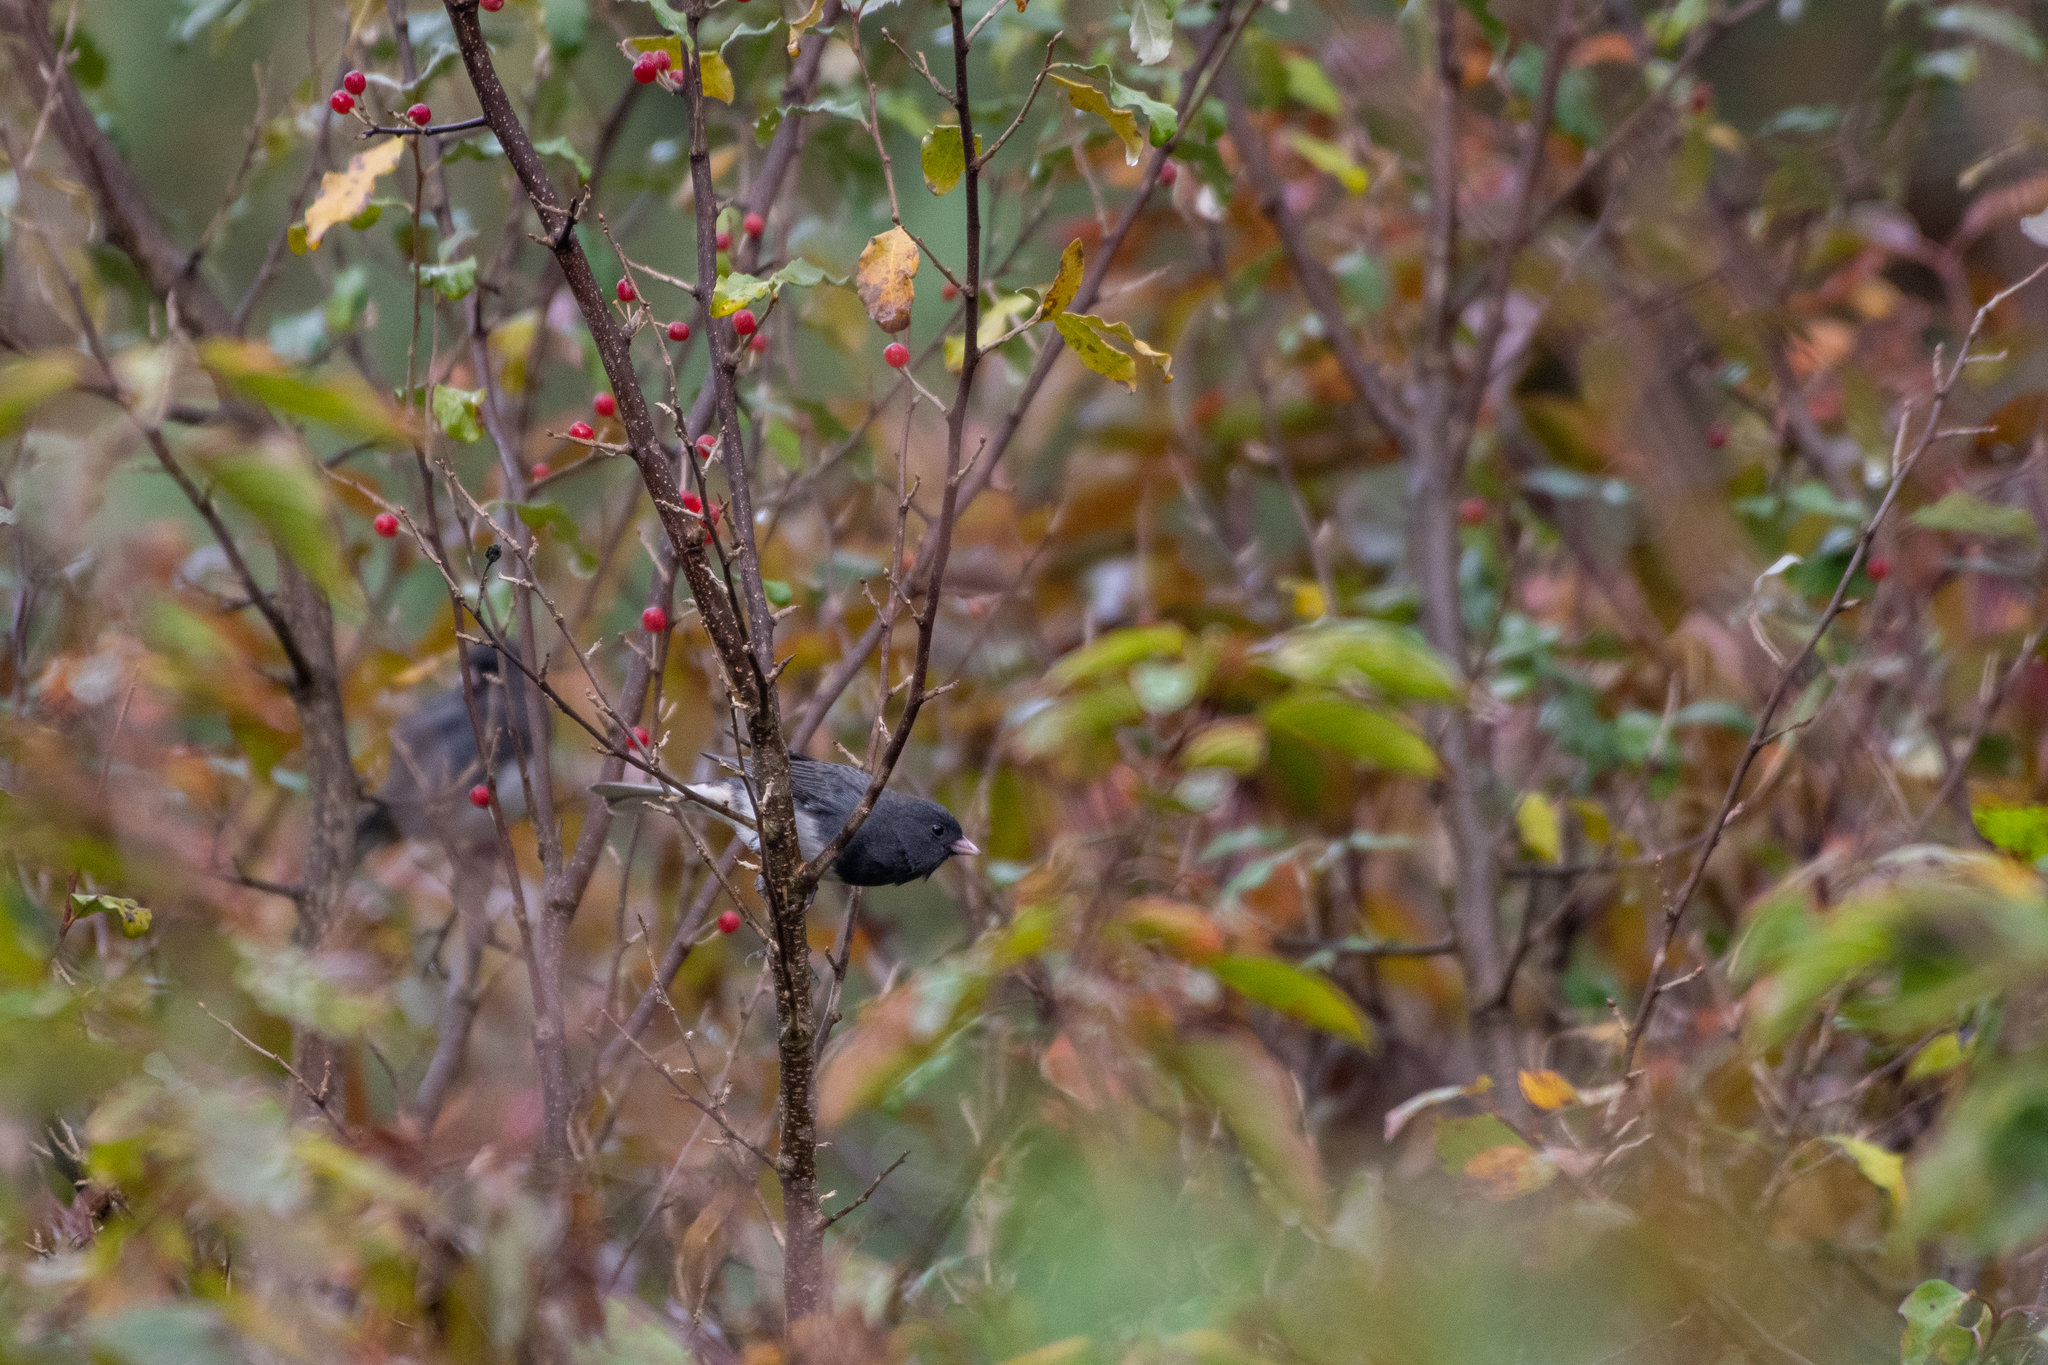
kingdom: Animalia
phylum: Chordata
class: Aves
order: Passeriformes
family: Passerellidae
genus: Junco
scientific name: Junco hyemalis
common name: Dark-eyed junco
